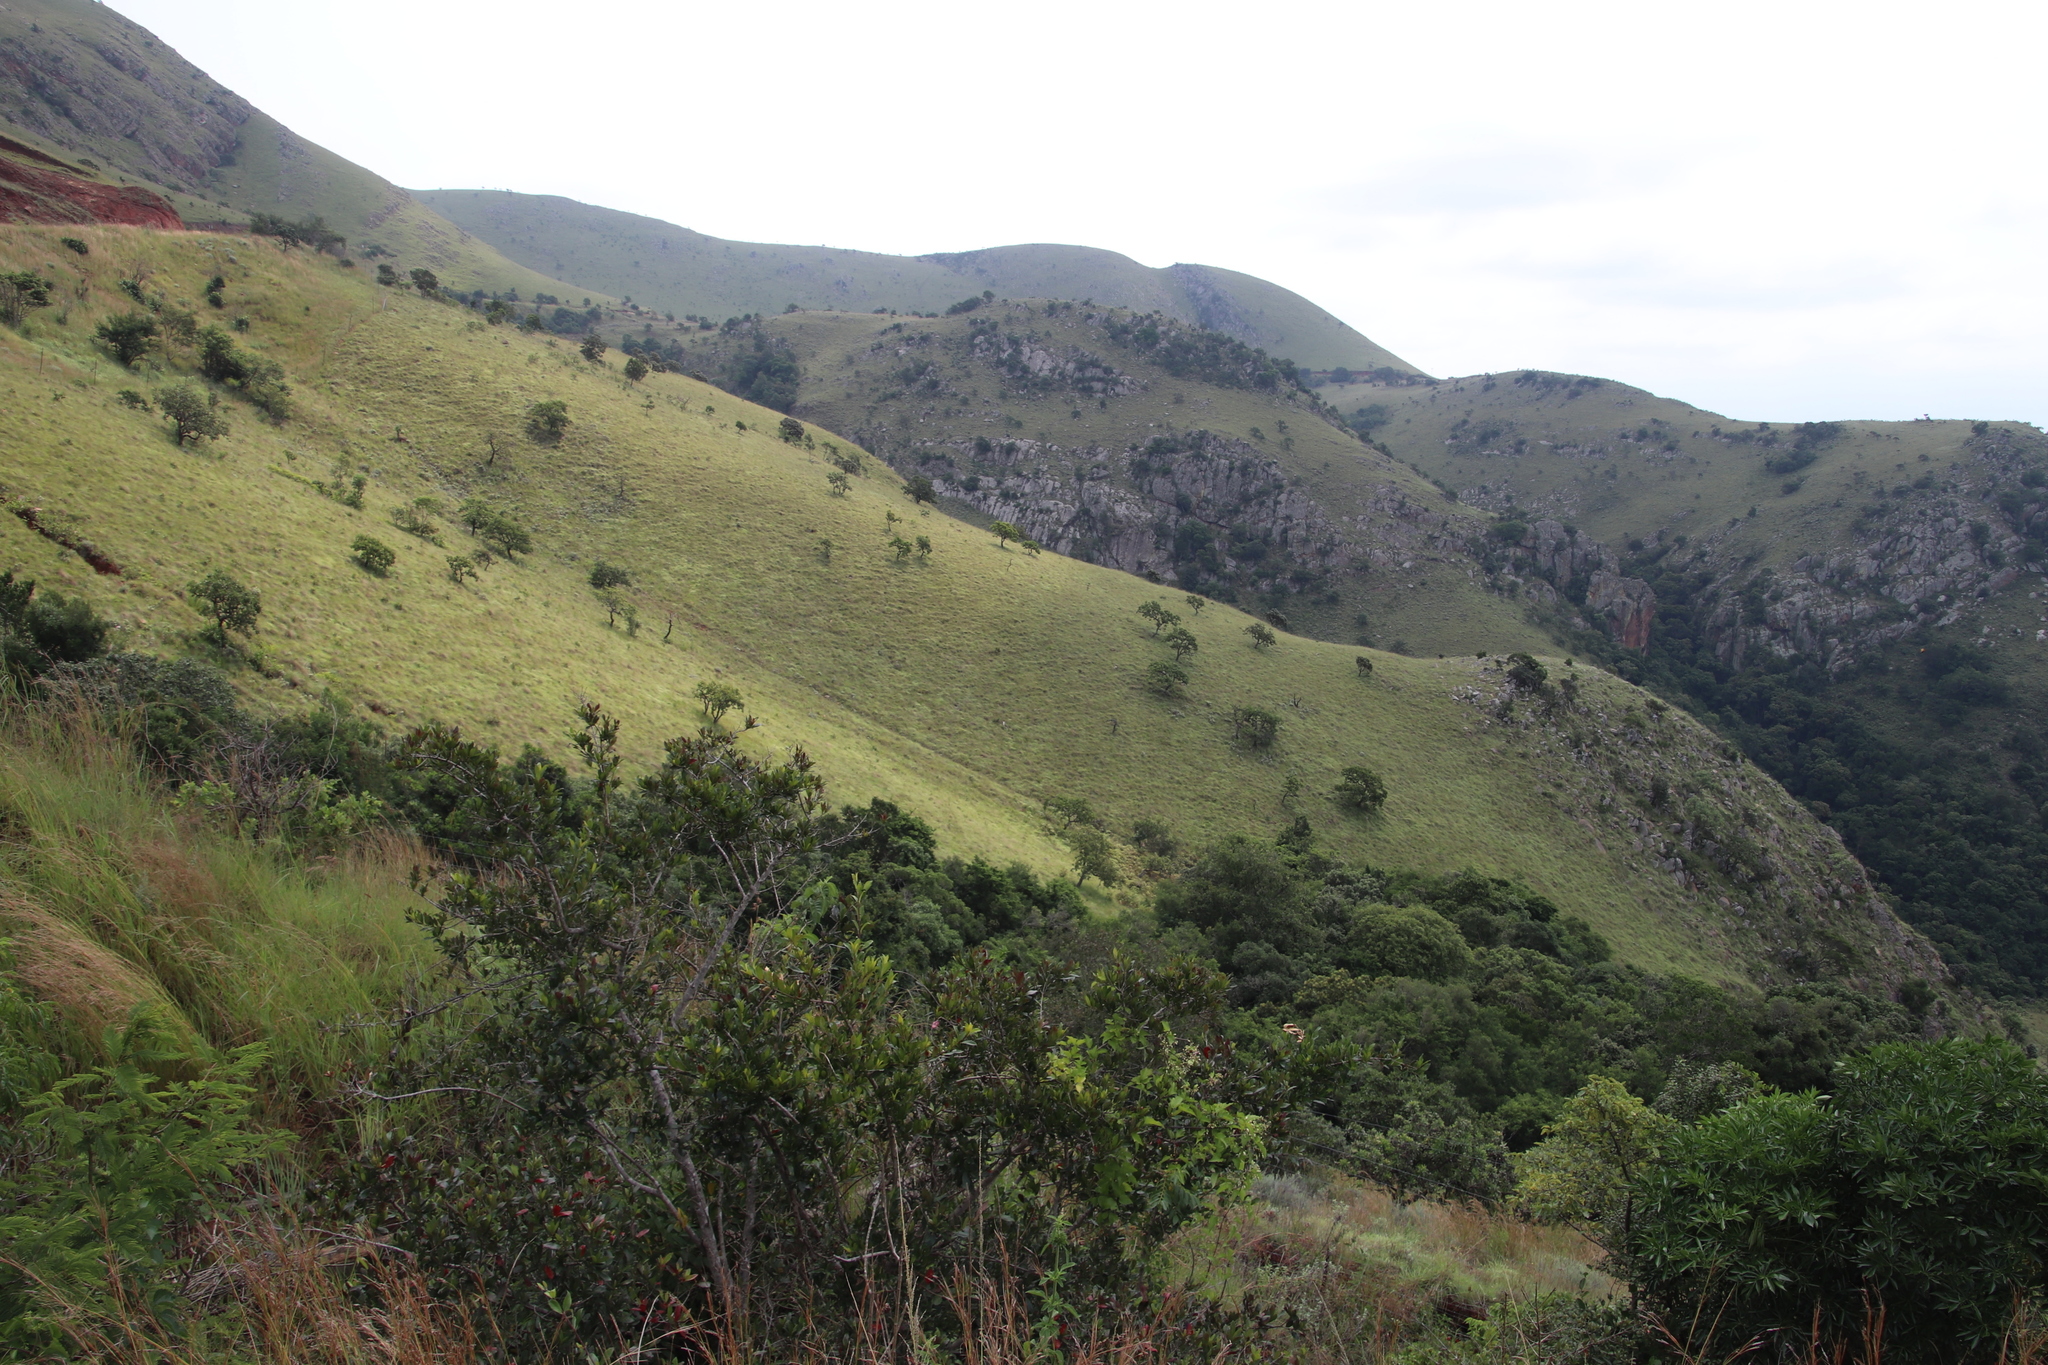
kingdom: Plantae
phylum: Tracheophyta
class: Magnoliopsida
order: Proteales
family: Proteaceae
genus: Faurea
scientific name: Faurea rochetiana
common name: Broad-leaved beech
